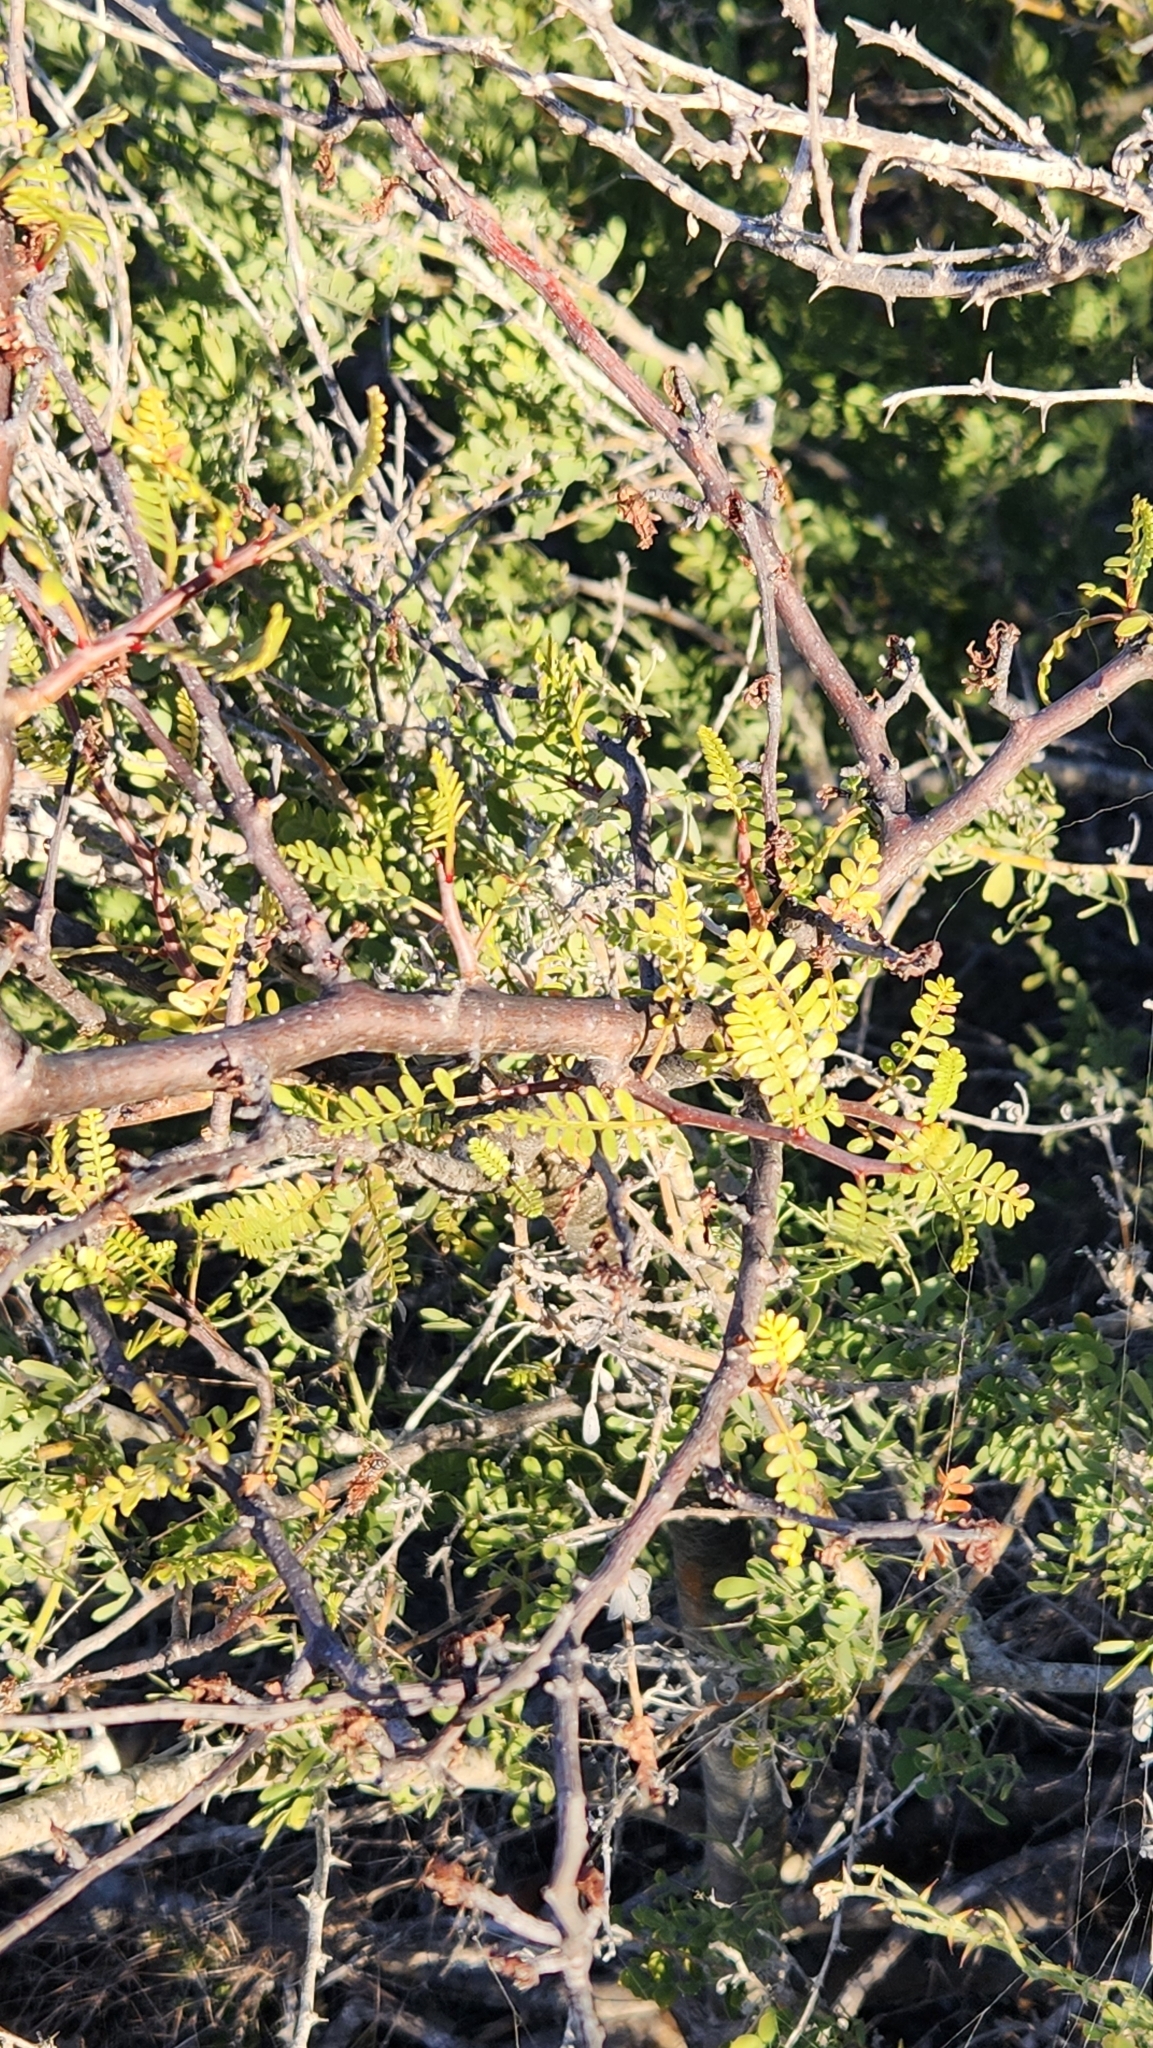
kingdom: Plantae
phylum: Tracheophyta
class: Magnoliopsida
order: Sapindales
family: Burseraceae
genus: Bursera
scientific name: Bursera microphylla
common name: Elephant tree
